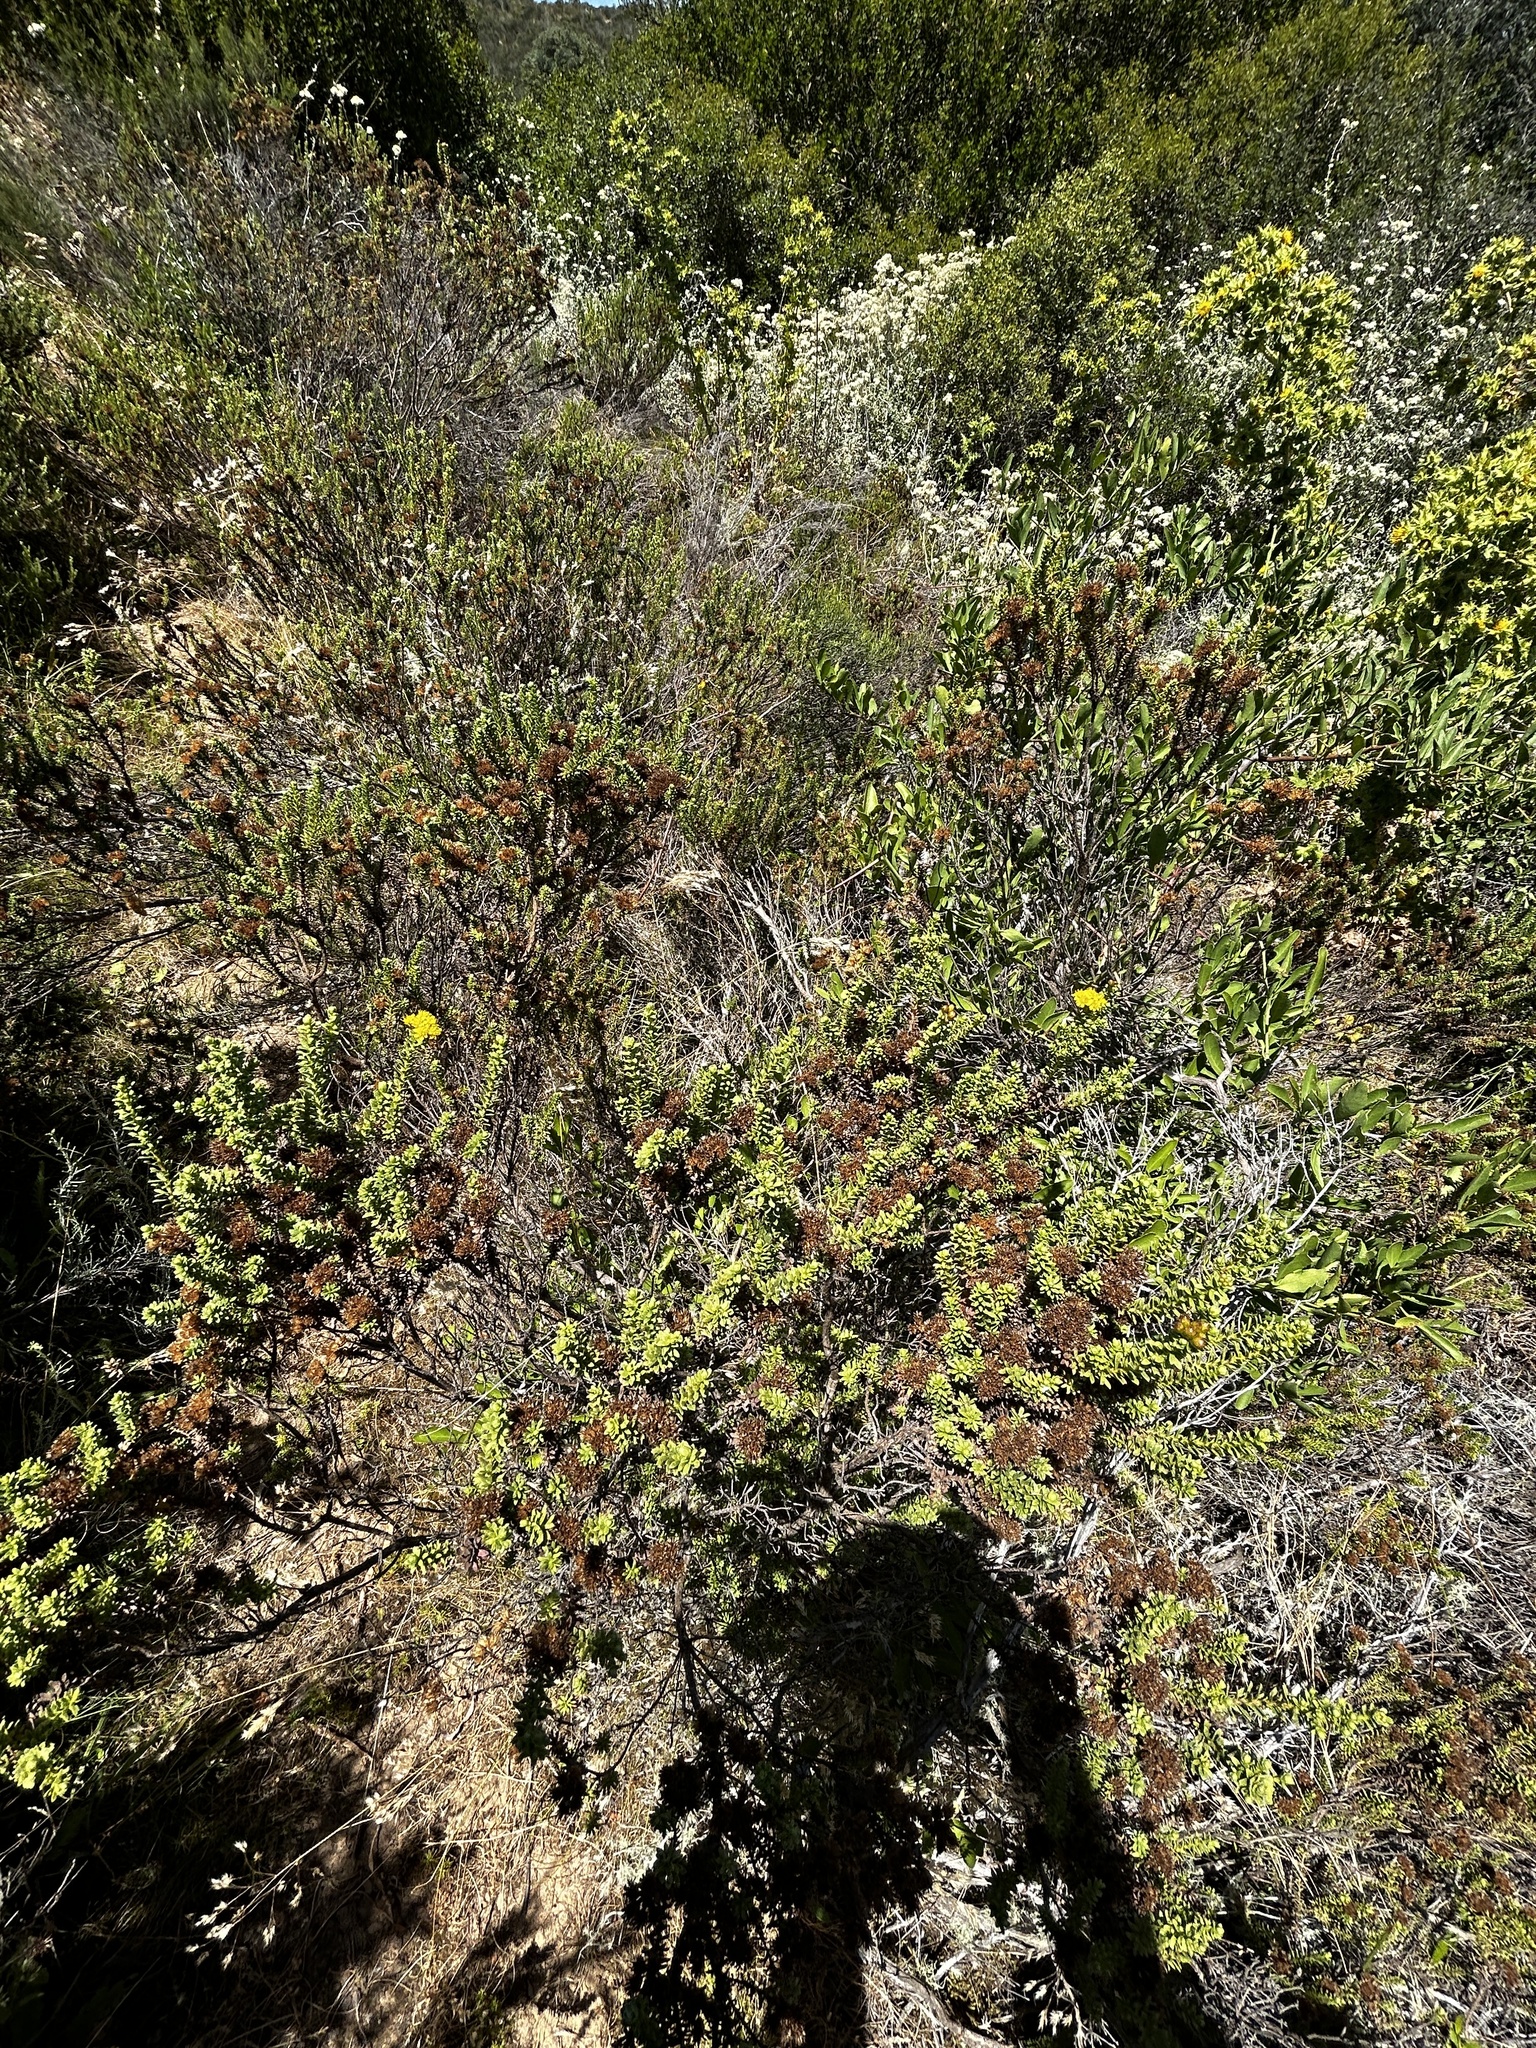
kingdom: Plantae
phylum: Tracheophyta
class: Magnoliopsida
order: Asterales
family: Asteraceae
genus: Oedera
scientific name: Oedera genistifolia
